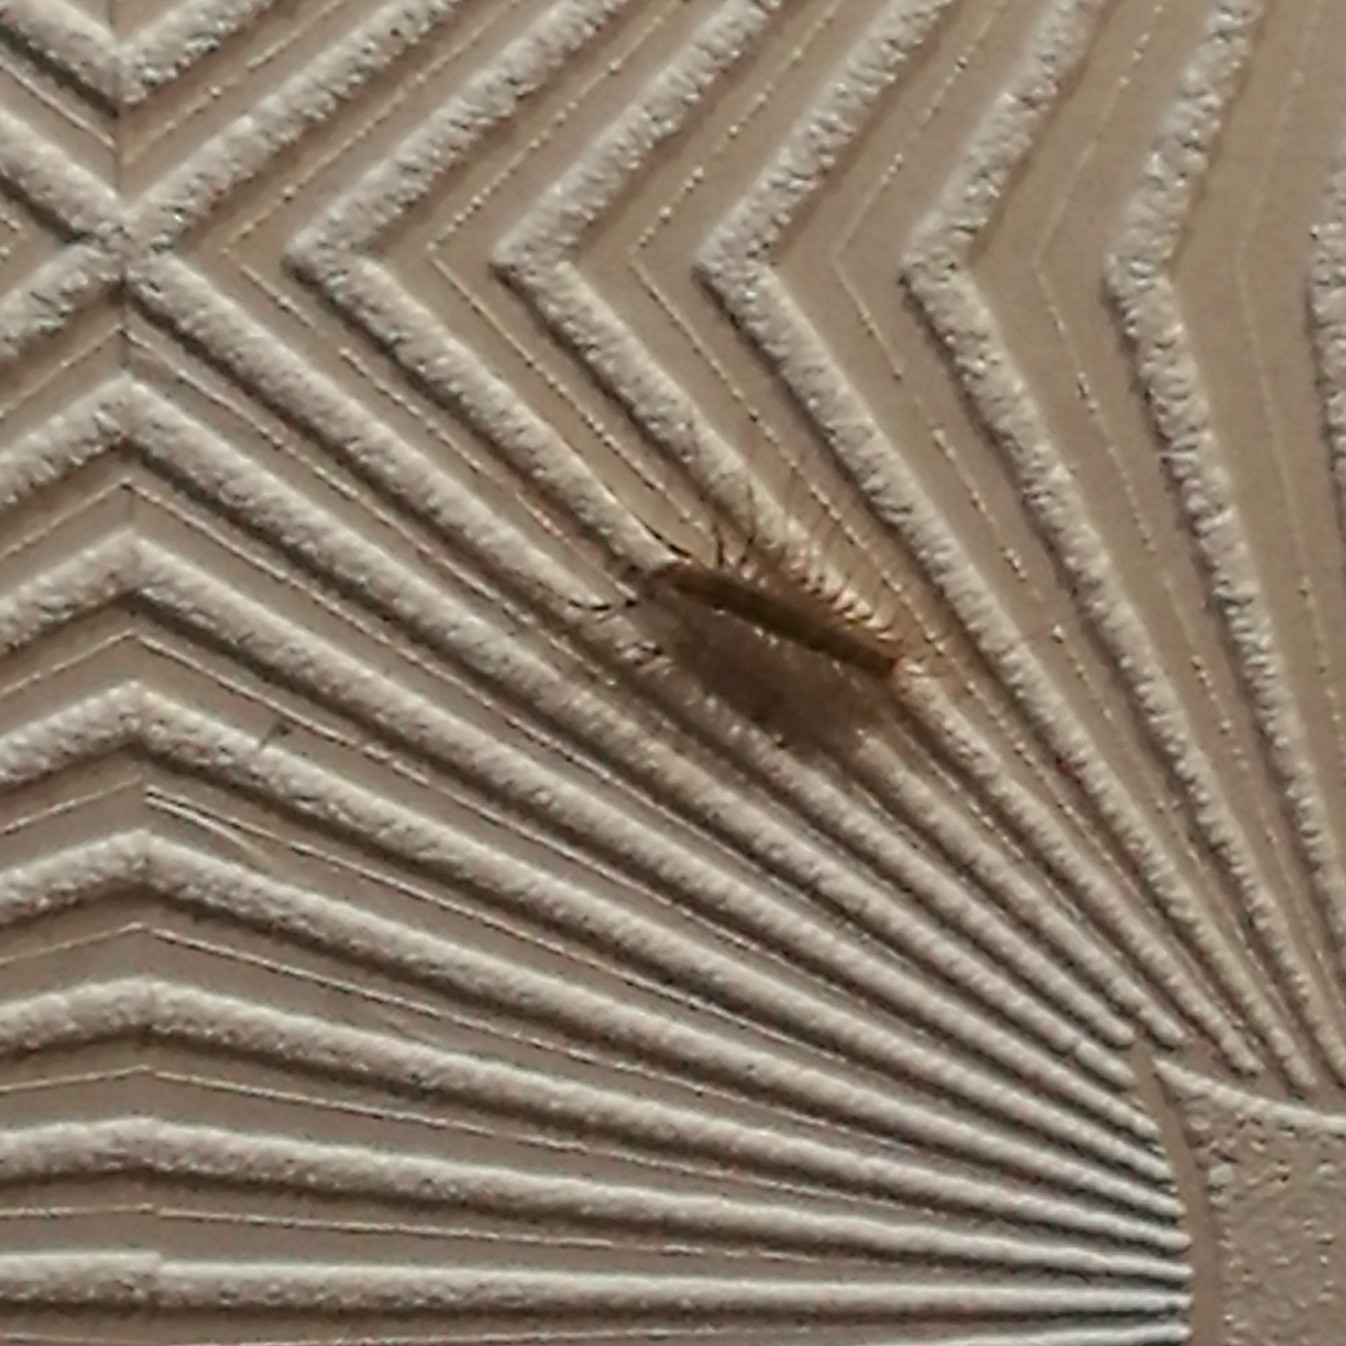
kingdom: Animalia
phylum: Arthropoda
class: Chilopoda
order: Scutigeromorpha
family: Scutigeridae
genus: Scutigera
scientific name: Scutigera coleoptrata
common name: House centipede
